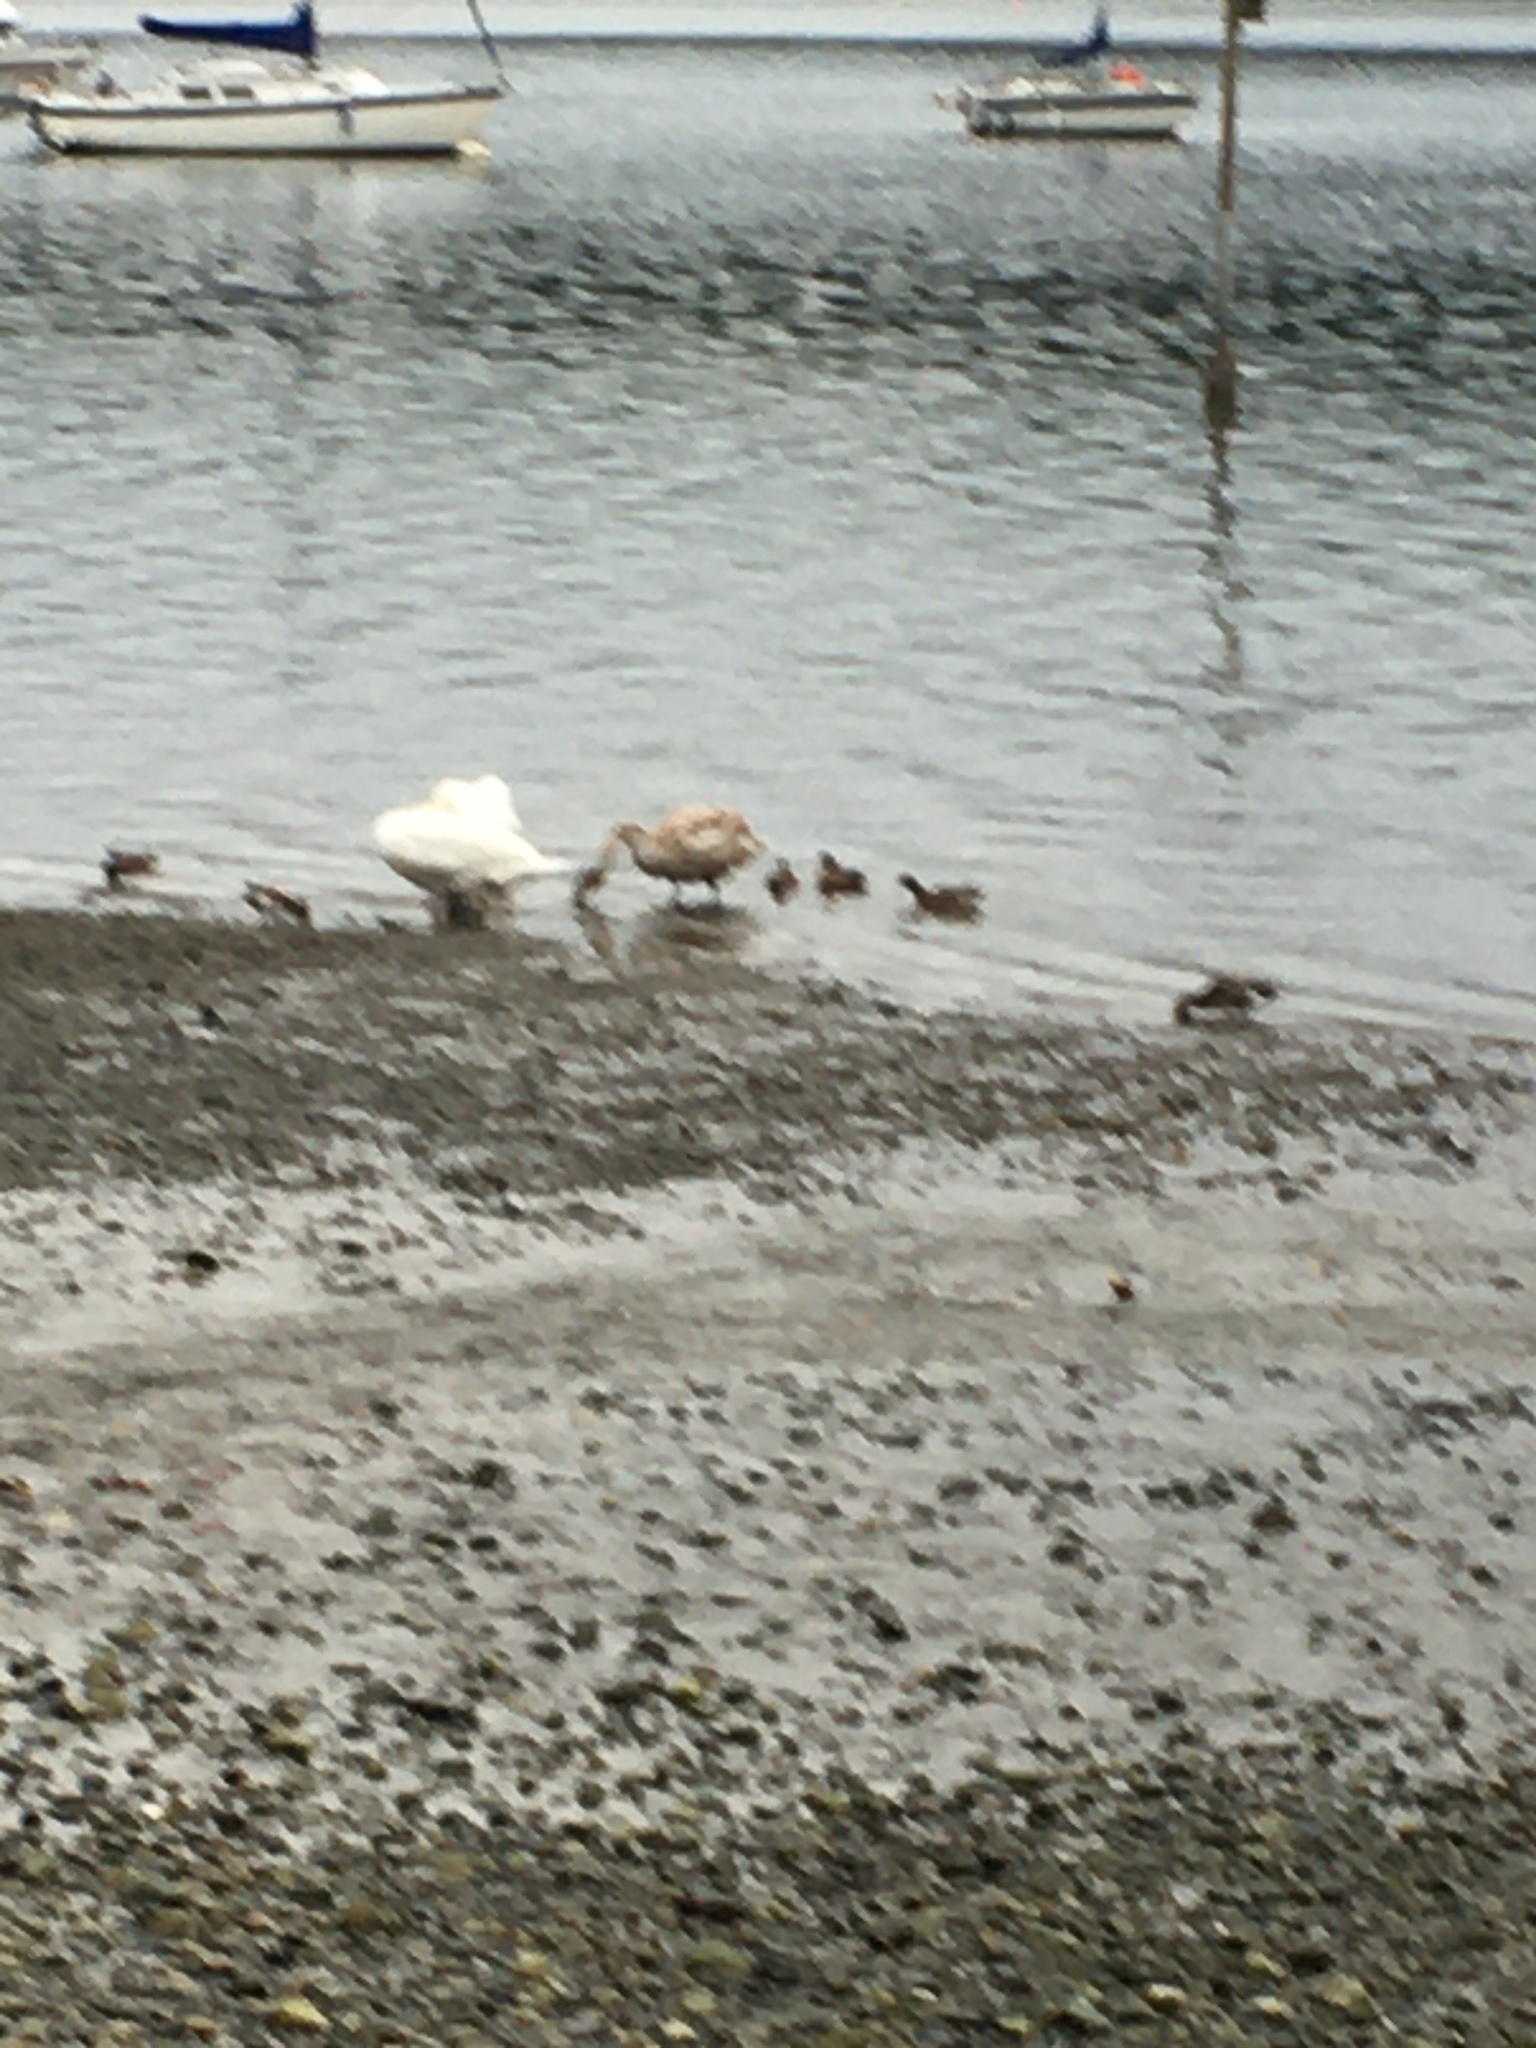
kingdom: Animalia
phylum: Chordata
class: Aves
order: Anseriformes
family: Anatidae
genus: Cygnus
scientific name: Cygnus olor
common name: Mute swan
